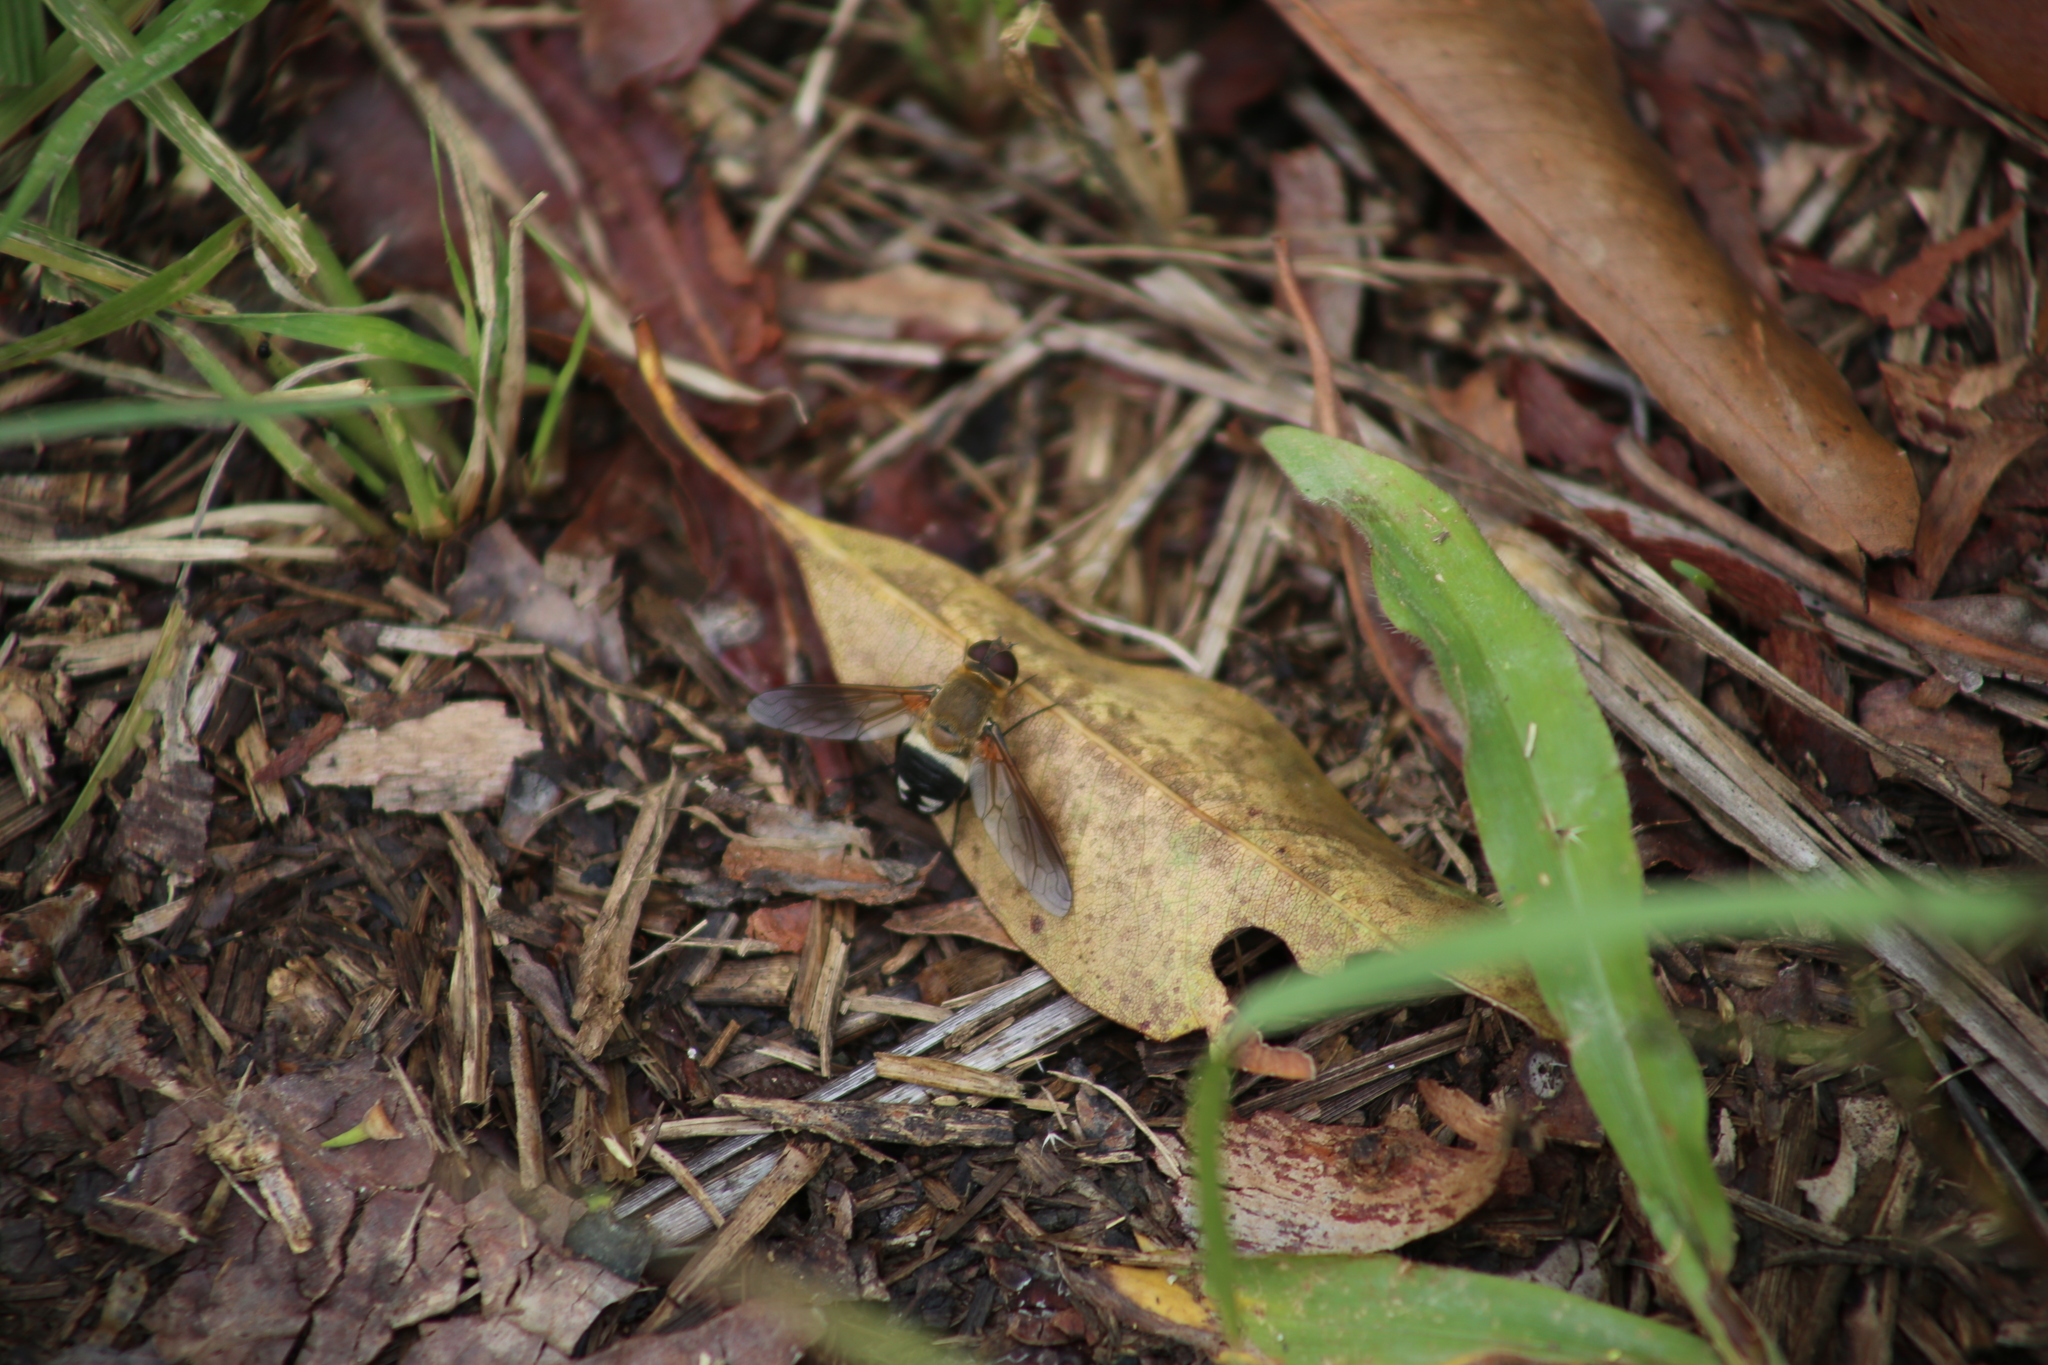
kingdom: Animalia
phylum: Arthropoda
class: Insecta
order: Diptera
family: Bombyliidae
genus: Ligyra
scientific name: Ligyra satyrus
